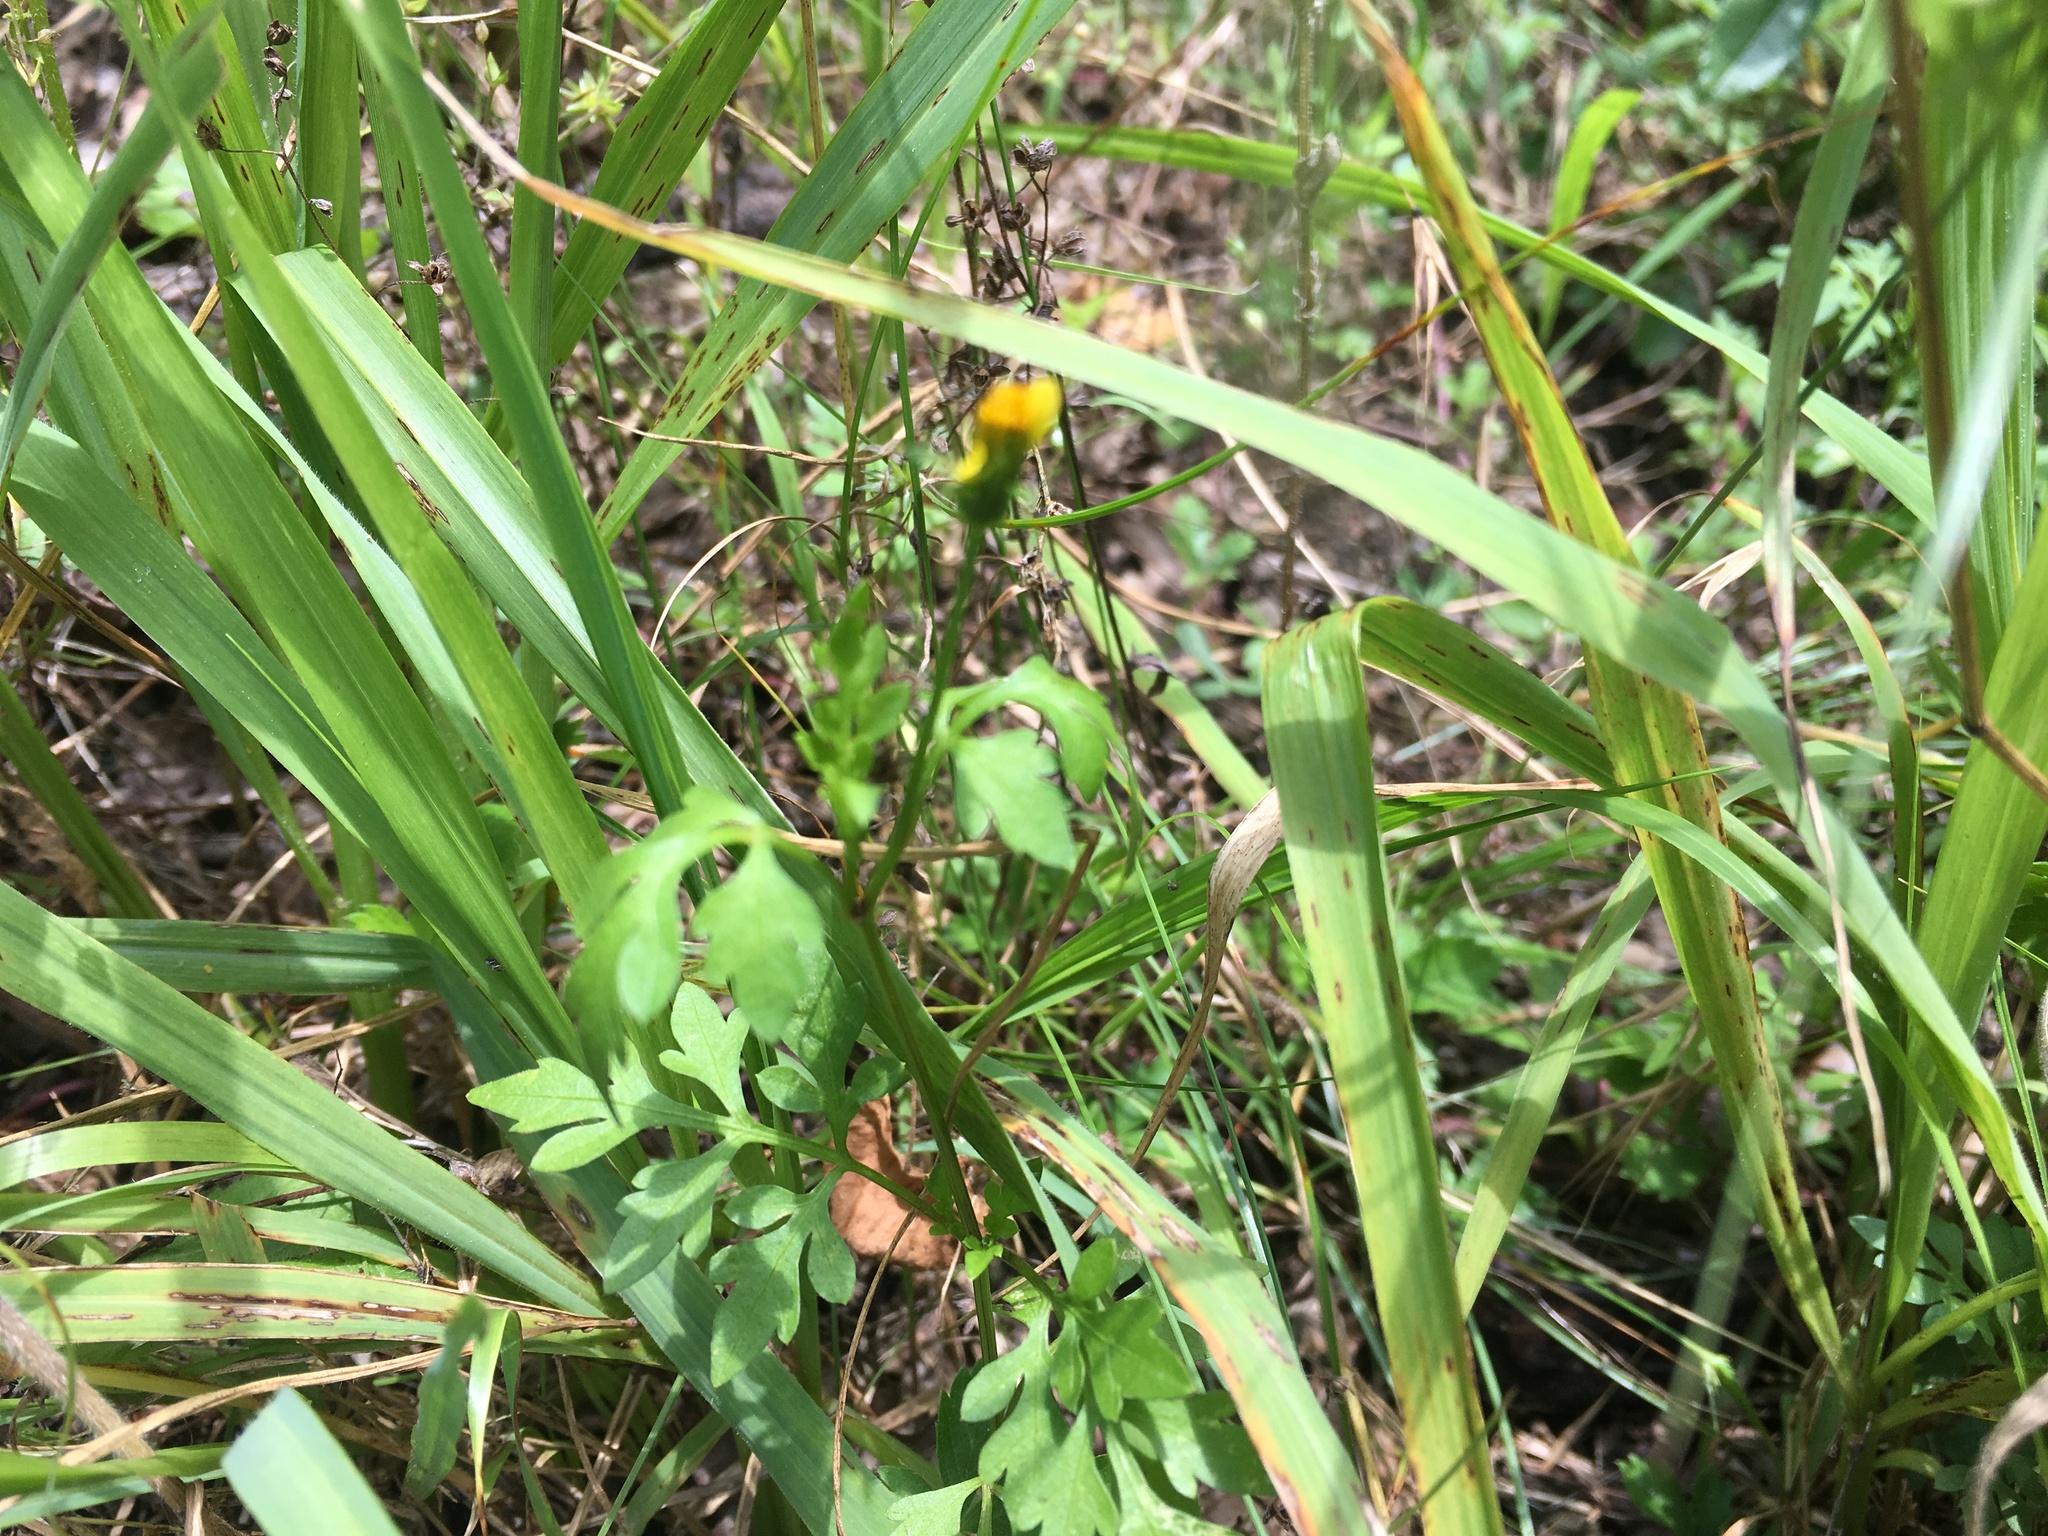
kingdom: Plantae
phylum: Tracheophyta
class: Magnoliopsida
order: Asterales
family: Asteraceae
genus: Bidens
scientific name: Bidens bipinnata
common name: Spanish-needles
